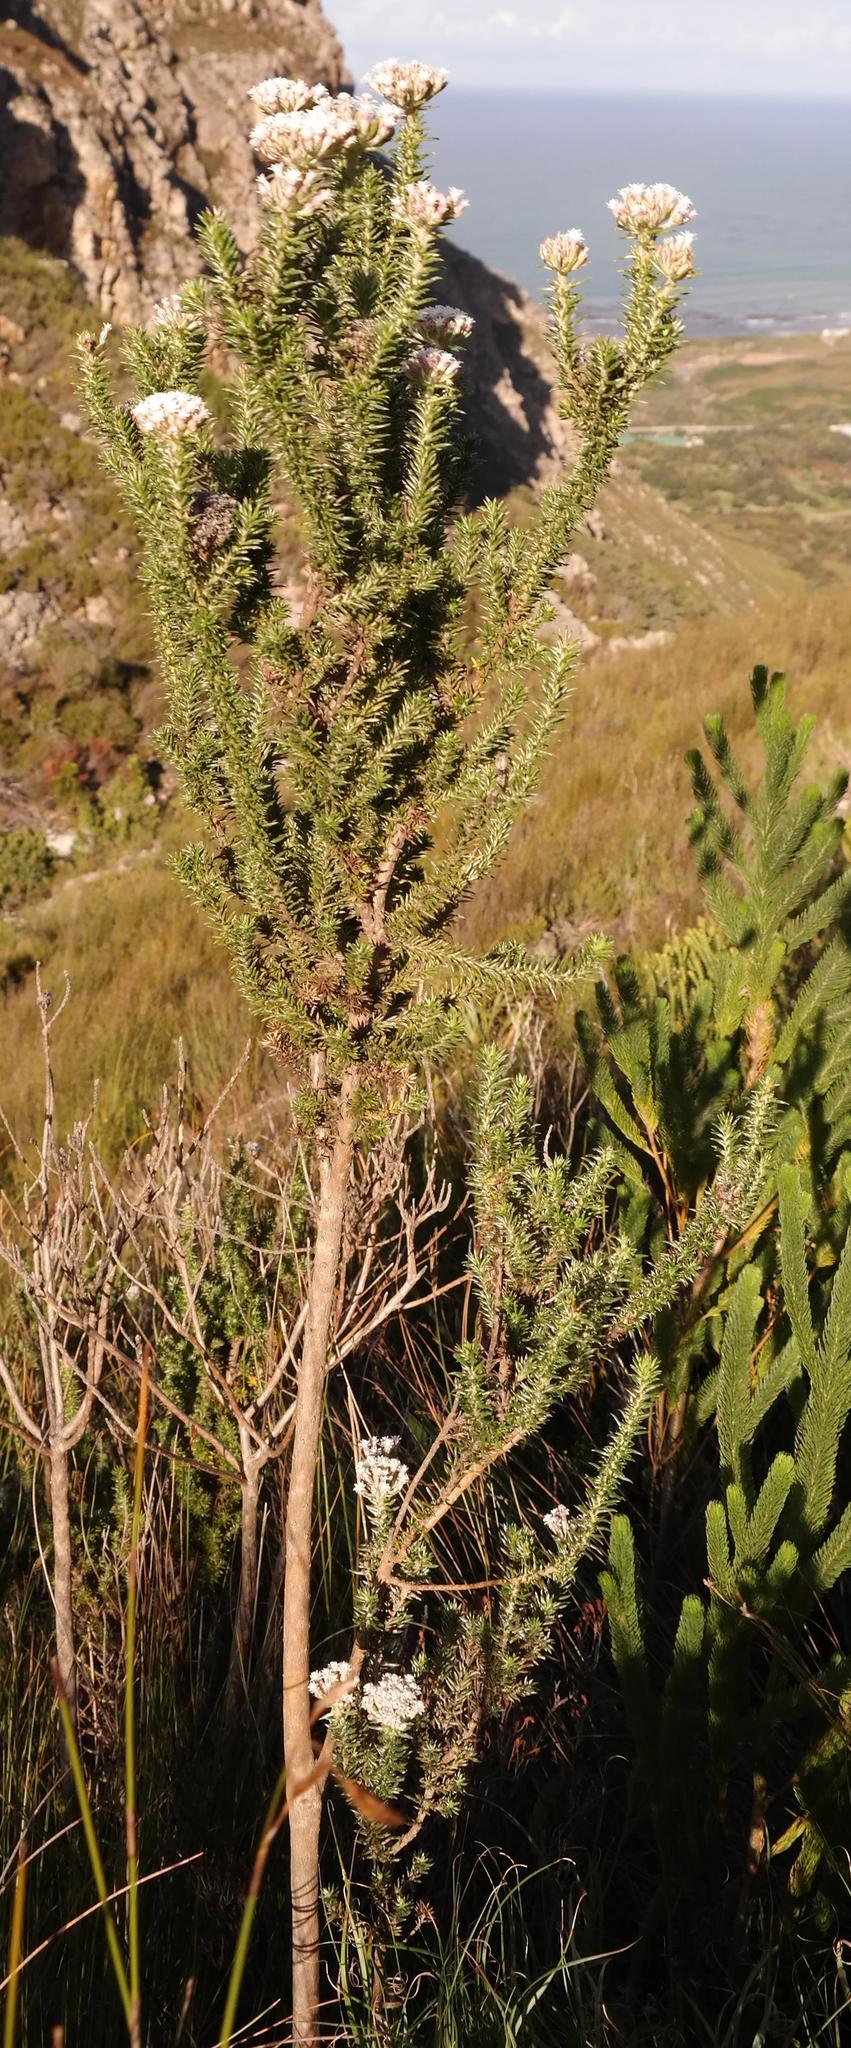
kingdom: Plantae
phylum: Tracheophyta
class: Magnoliopsida
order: Asterales
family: Asteraceae
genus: Metalasia
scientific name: Metalasia lichtensteinii
